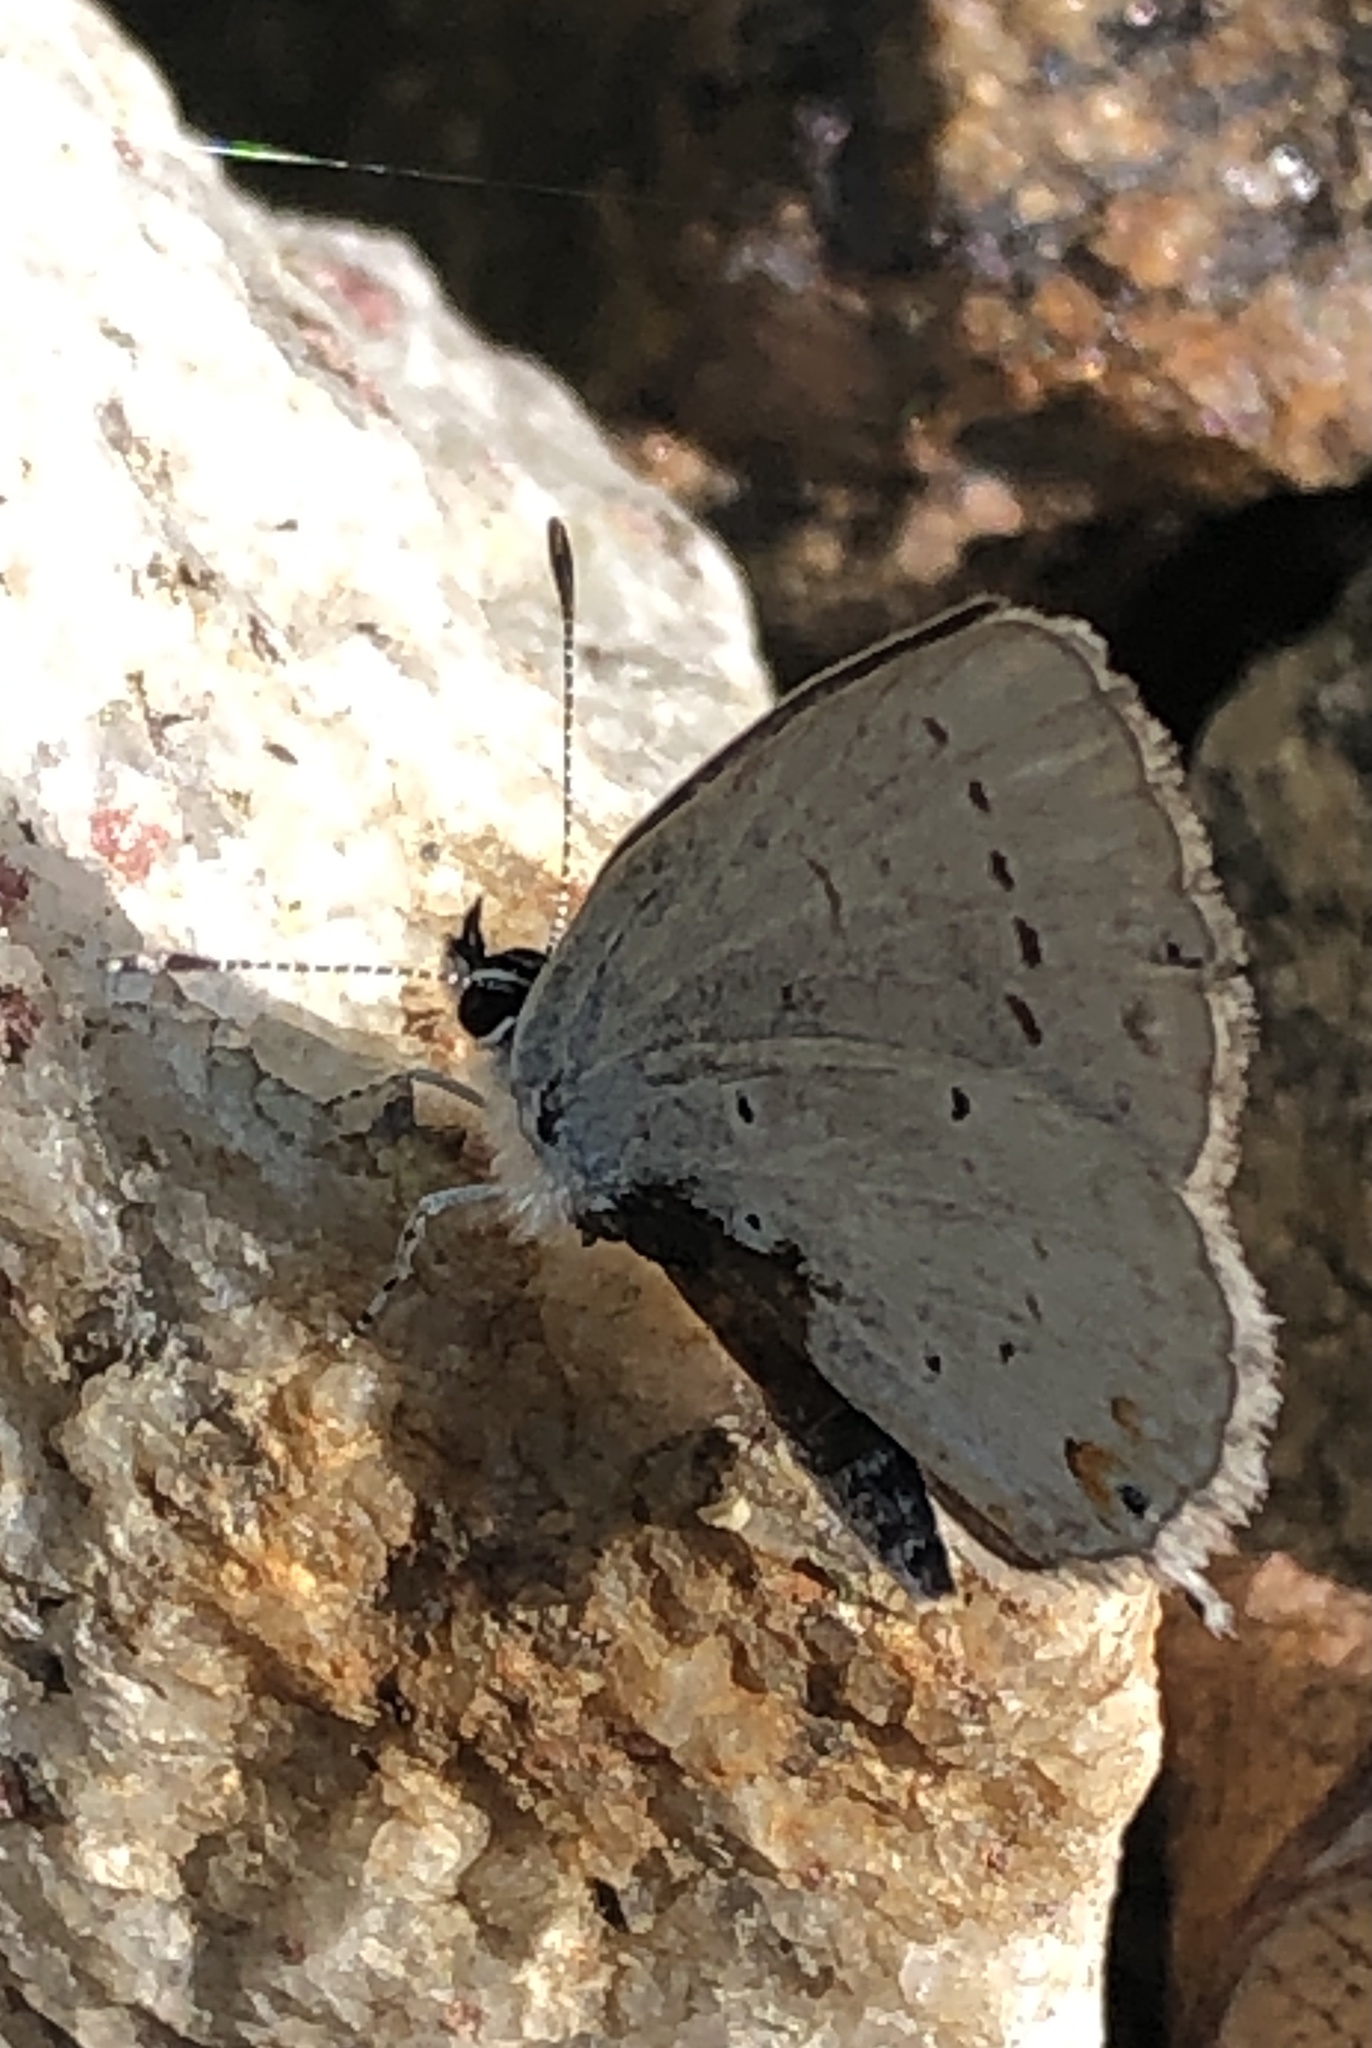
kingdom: Animalia
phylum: Arthropoda
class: Insecta
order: Lepidoptera
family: Lycaenidae
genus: Elkalyce
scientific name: Elkalyce amyntula
